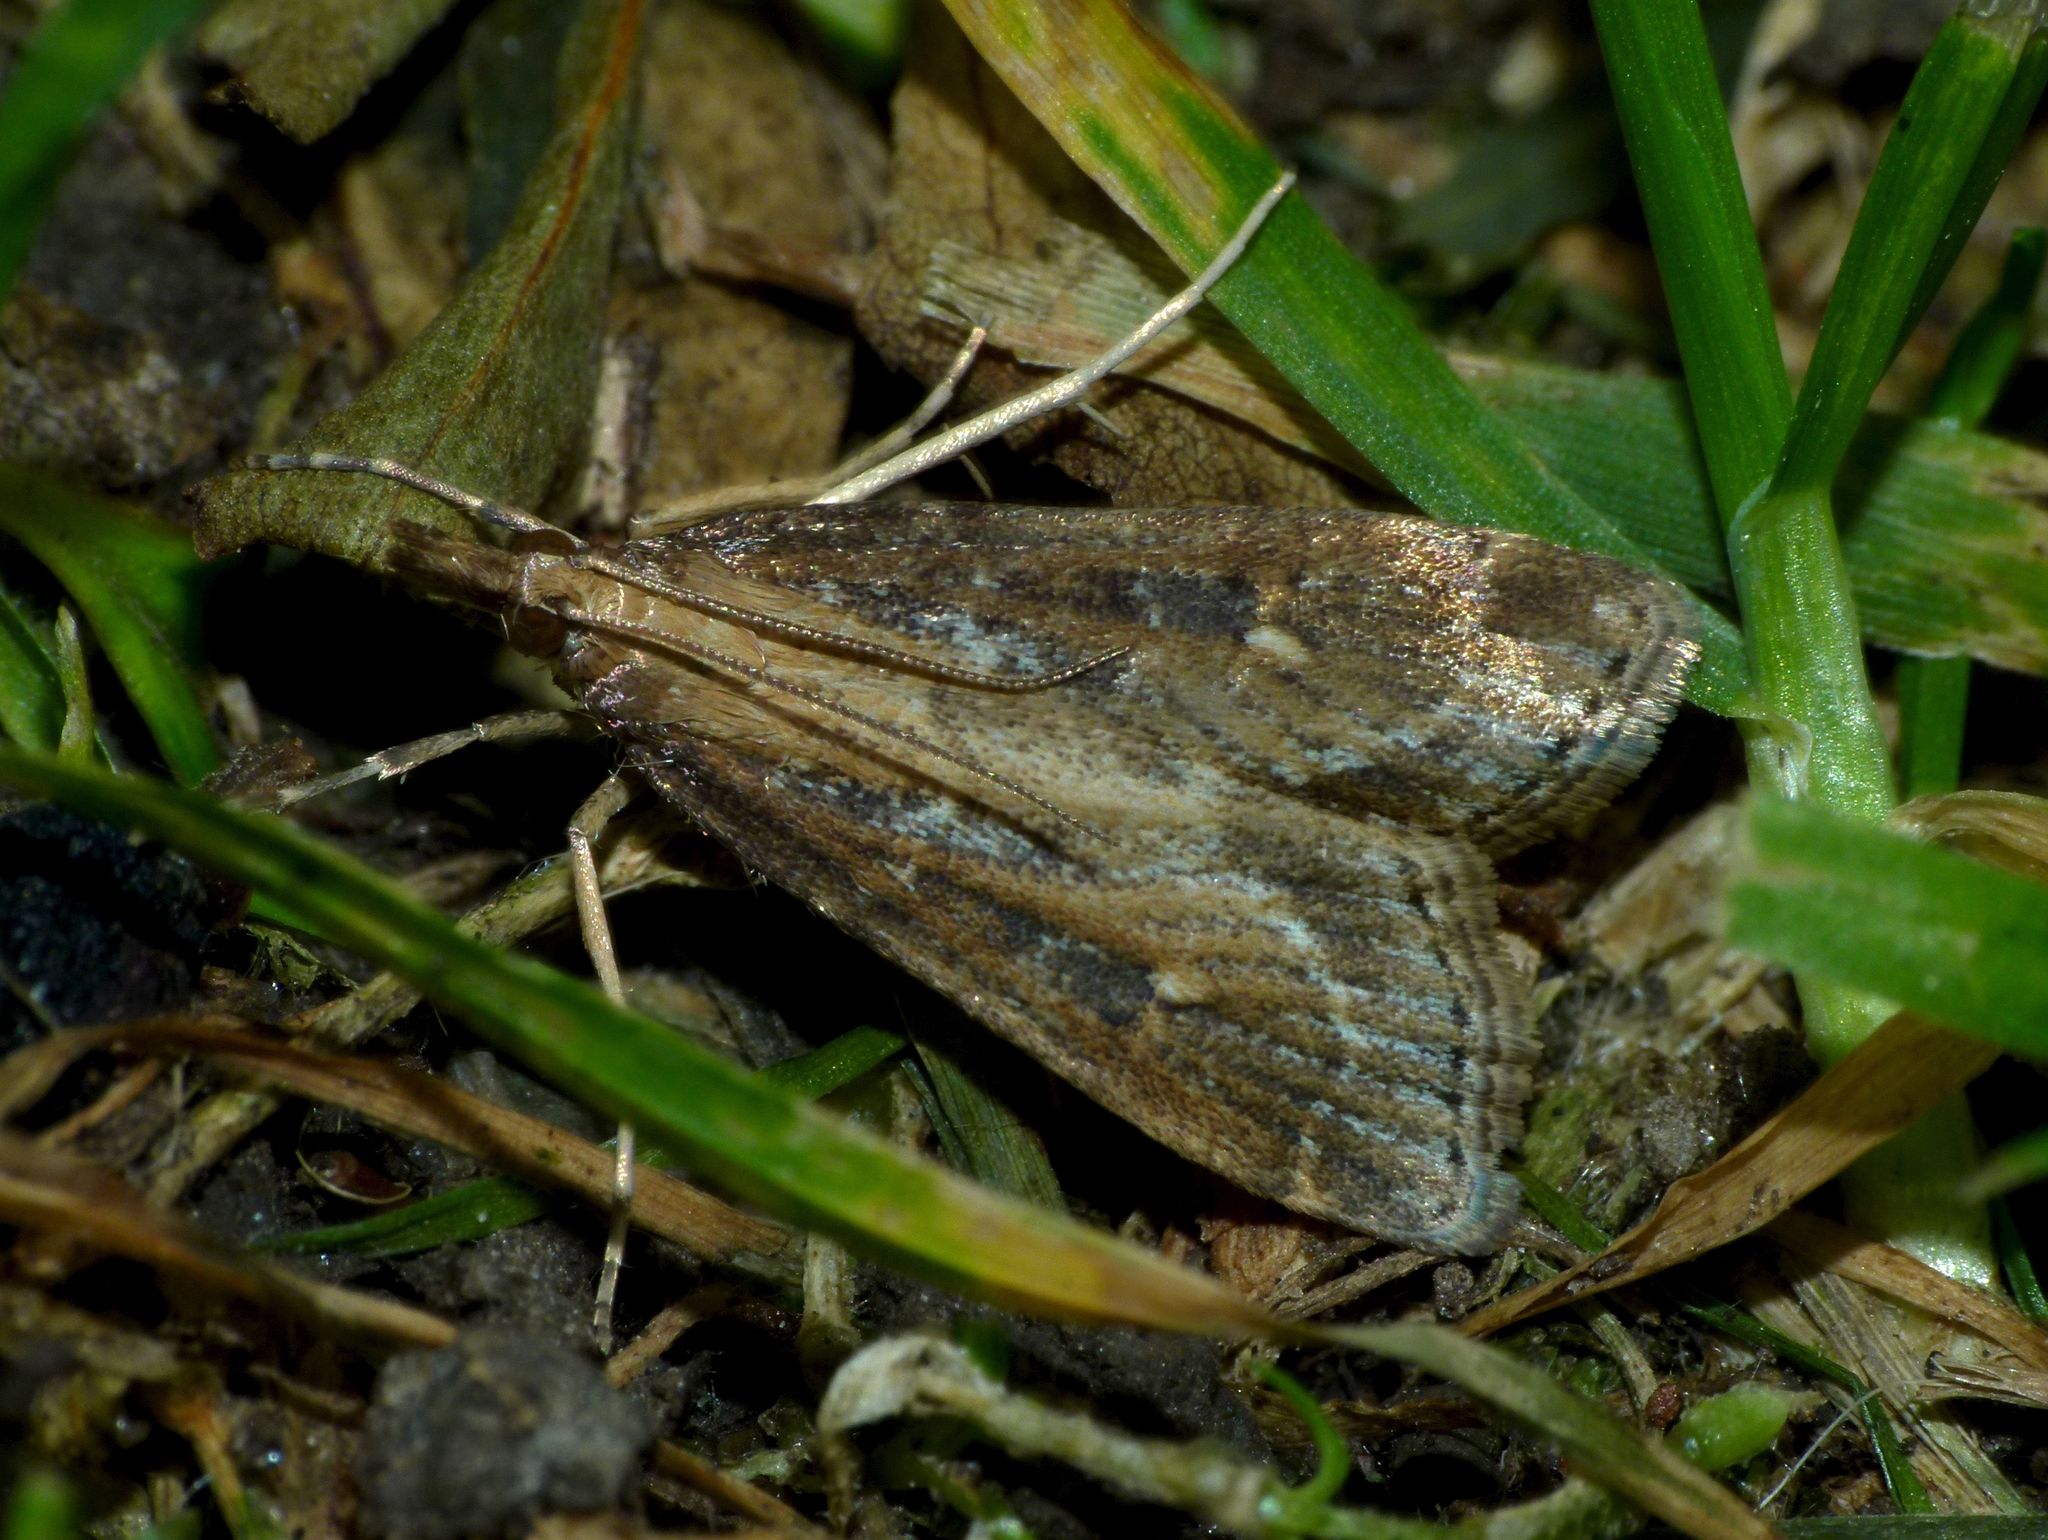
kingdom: Animalia
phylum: Arthropoda
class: Insecta
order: Lepidoptera
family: Crambidae
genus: Eudonia
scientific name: Eudonia octophora
